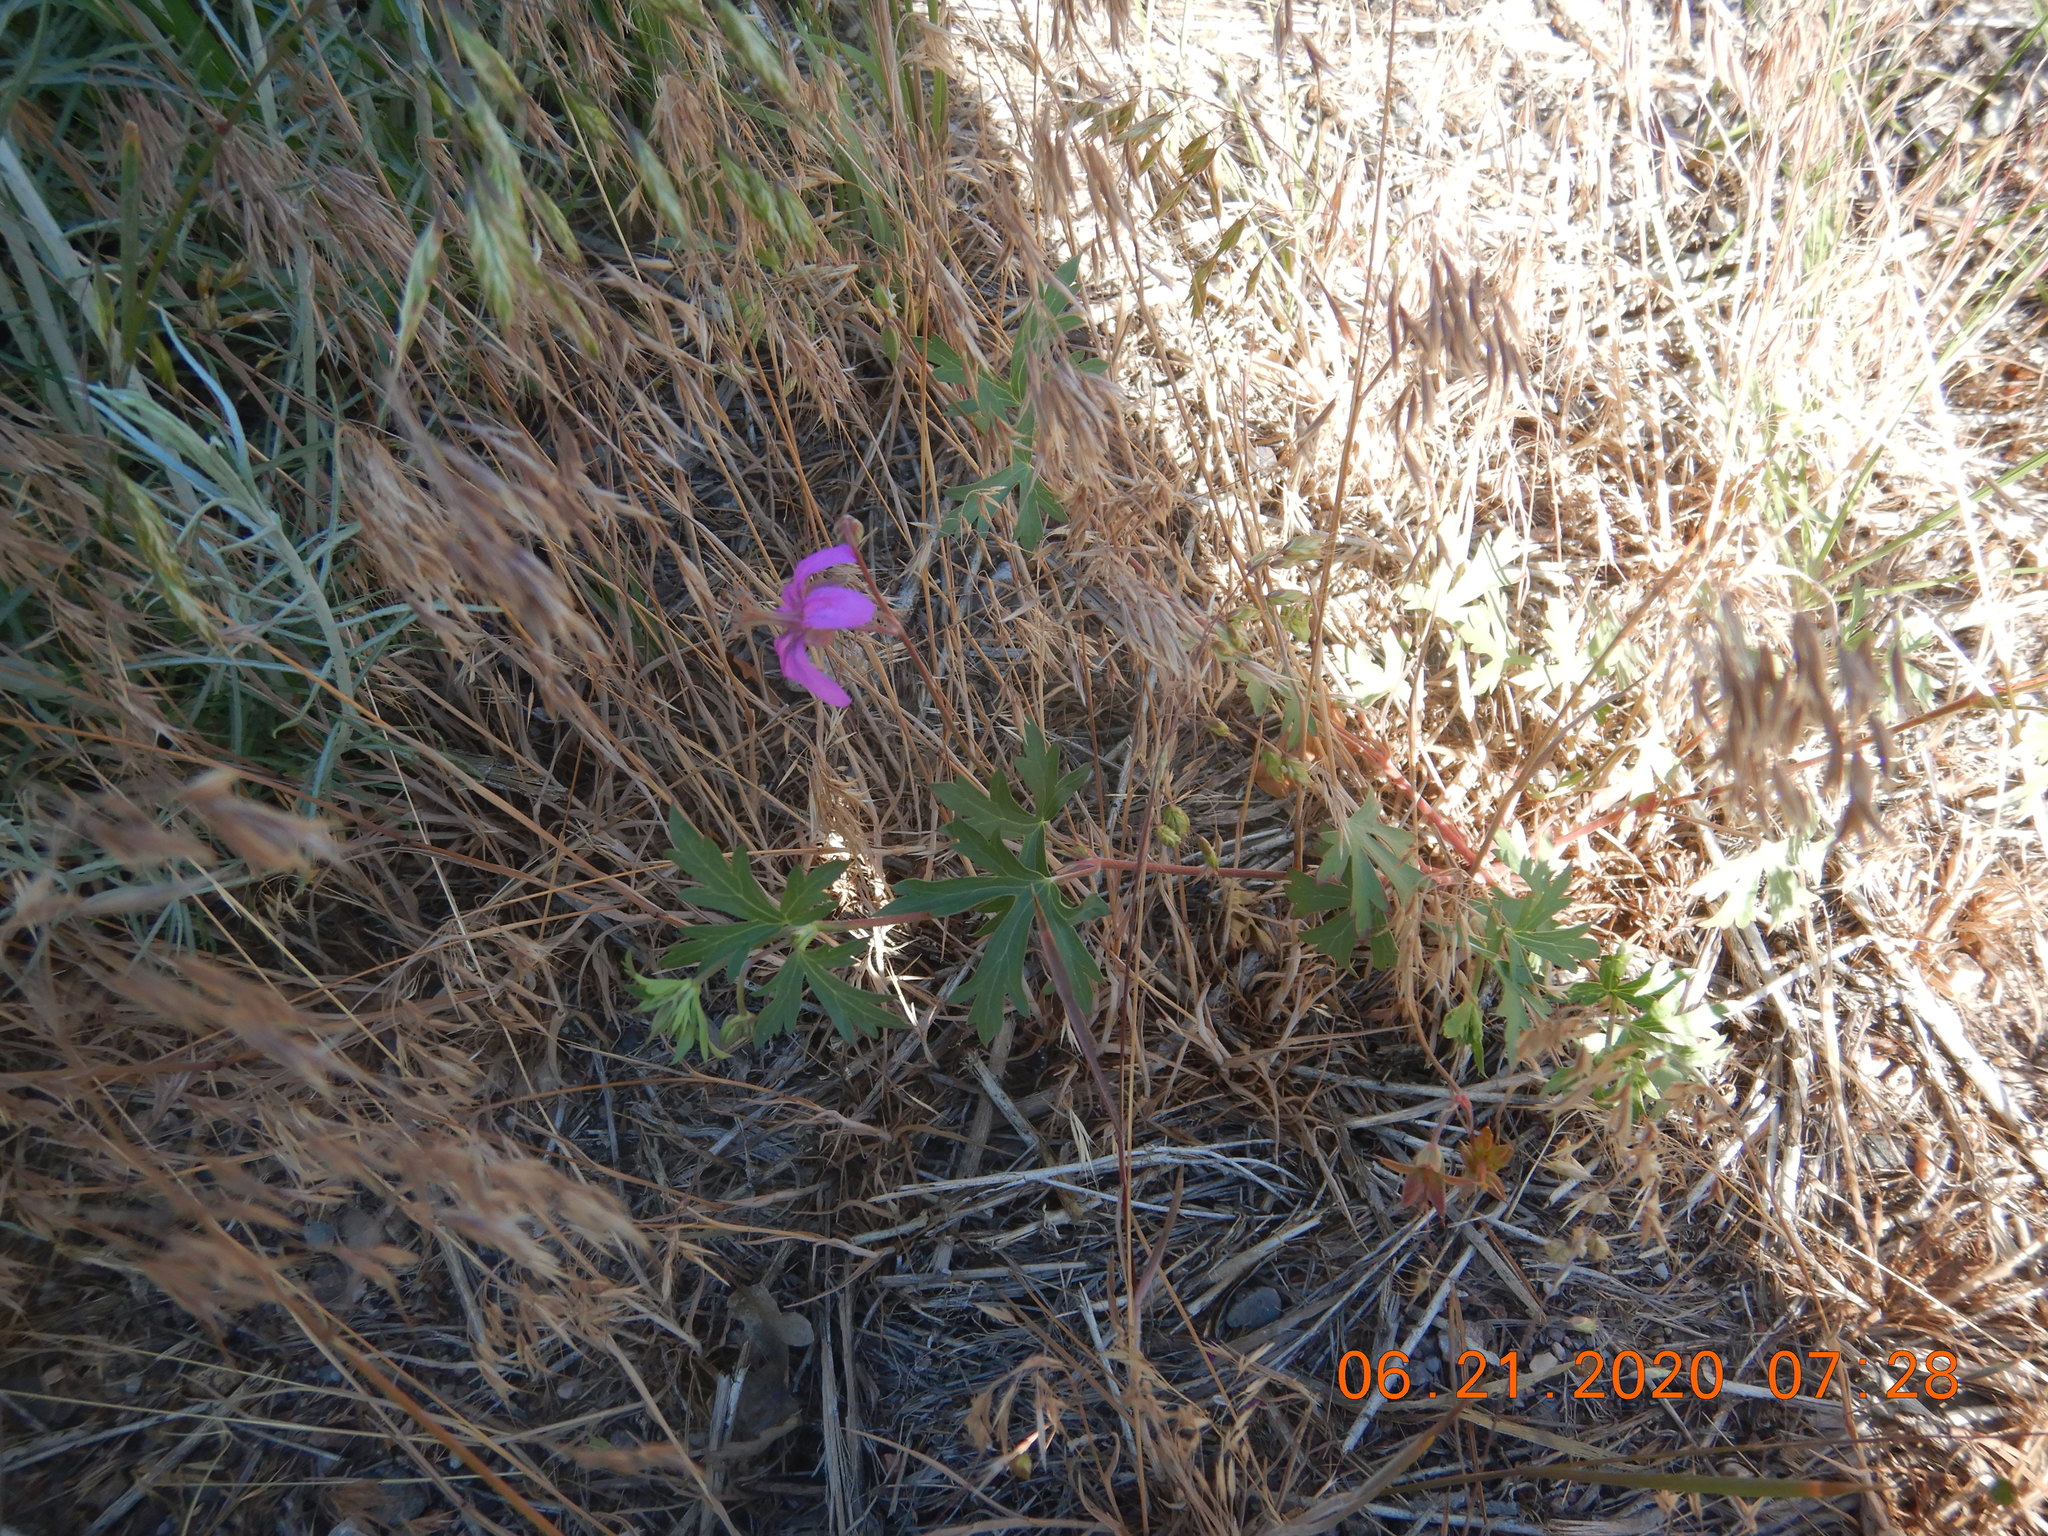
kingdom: Plantae
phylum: Tracheophyta
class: Magnoliopsida
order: Geraniales
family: Geraniaceae
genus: Geranium
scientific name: Geranium caespitosum
